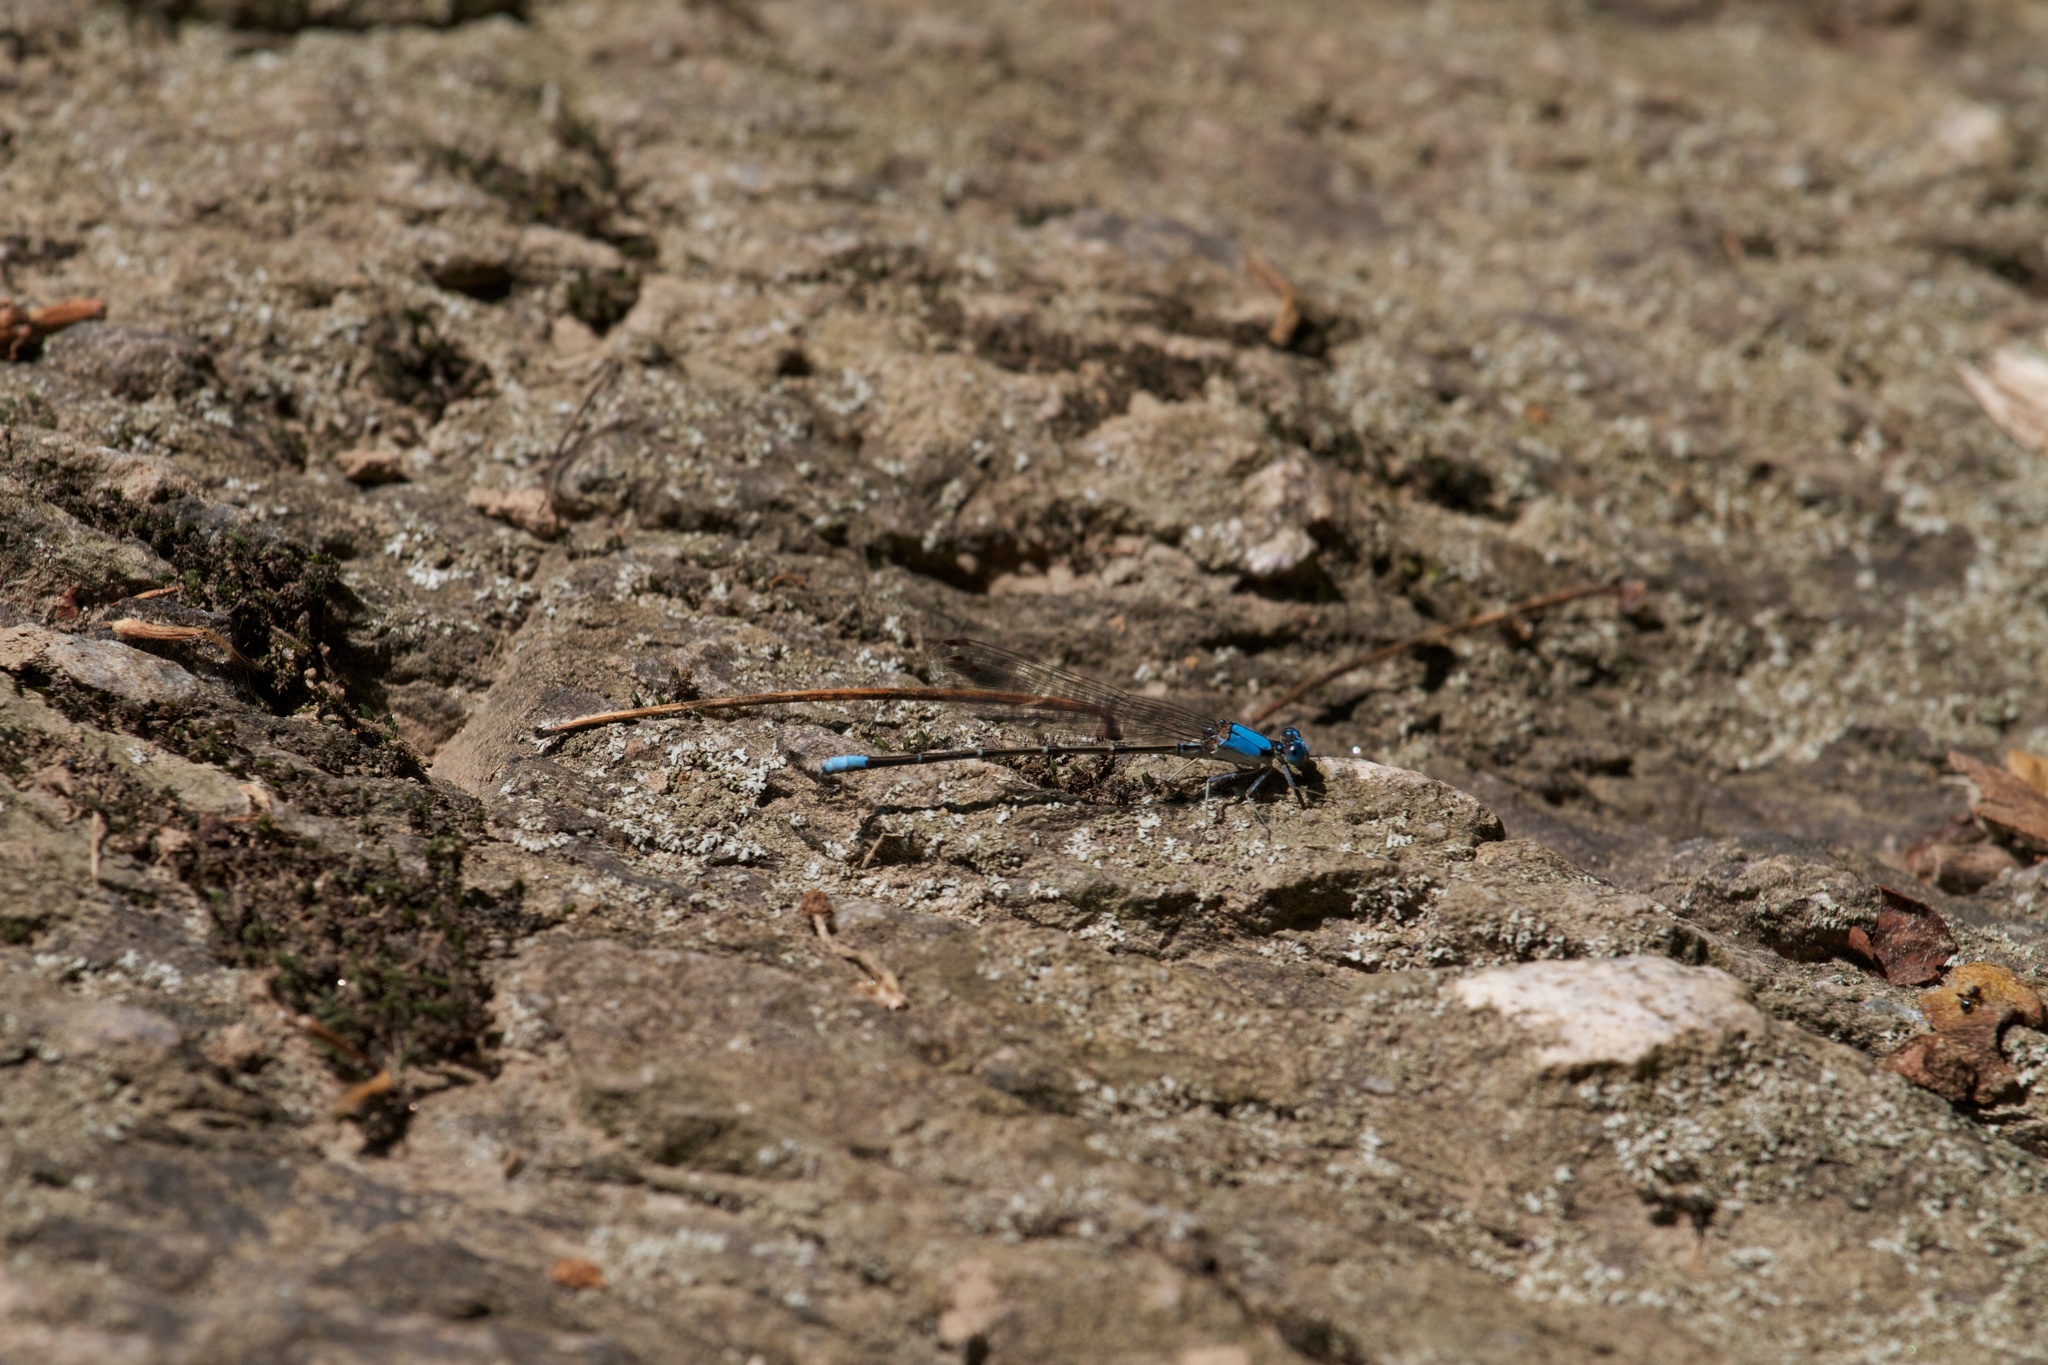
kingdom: Animalia
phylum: Arthropoda
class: Insecta
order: Odonata
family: Coenagrionidae
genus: Argia
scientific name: Argia apicalis
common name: Blue-fronted dancer
